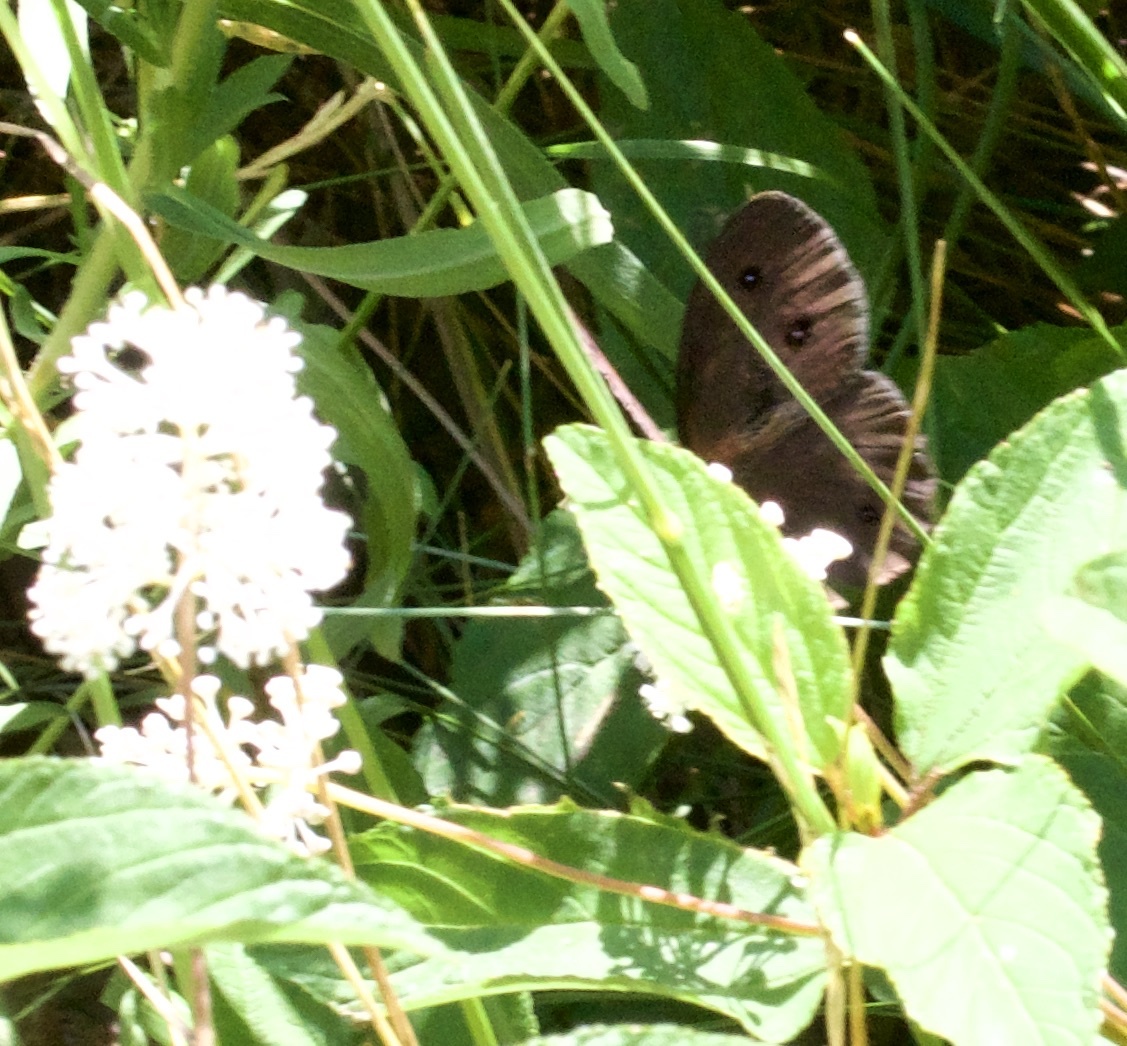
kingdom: Animalia
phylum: Arthropoda
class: Insecta
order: Lepidoptera
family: Nymphalidae
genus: Cercyonis
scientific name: Cercyonis pegala
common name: Common wood-nymph
